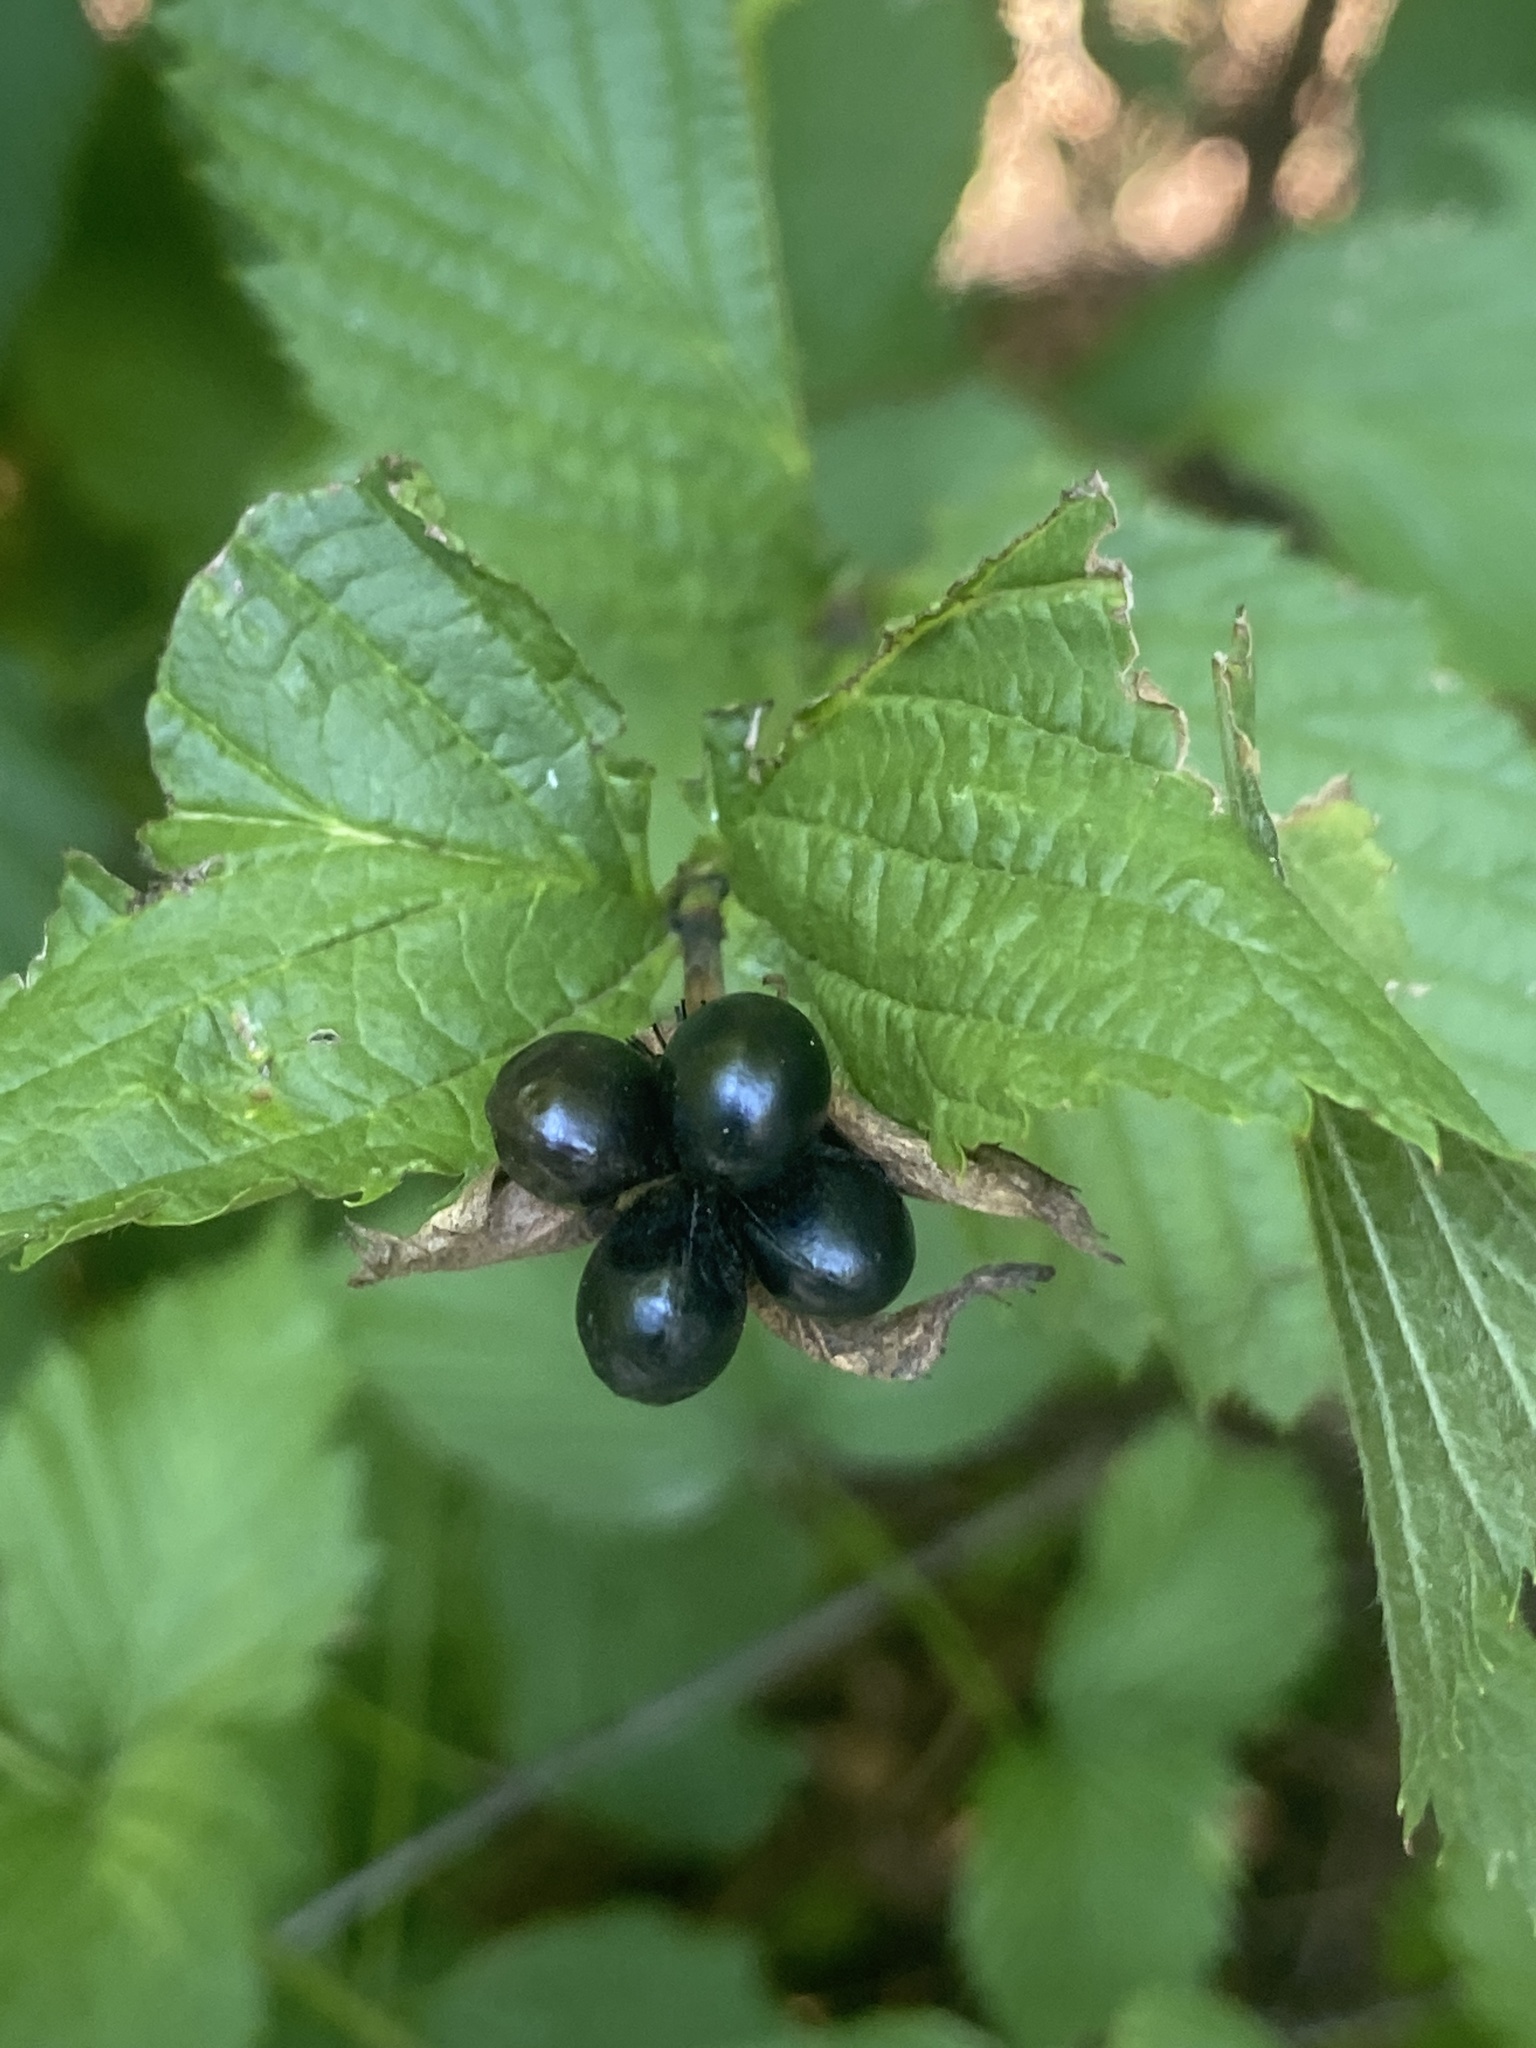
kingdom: Plantae
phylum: Tracheophyta
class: Magnoliopsida
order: Rosales
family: Rosaceae
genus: Rhodotypos
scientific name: Rhodotypos scandens
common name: Jetbead
